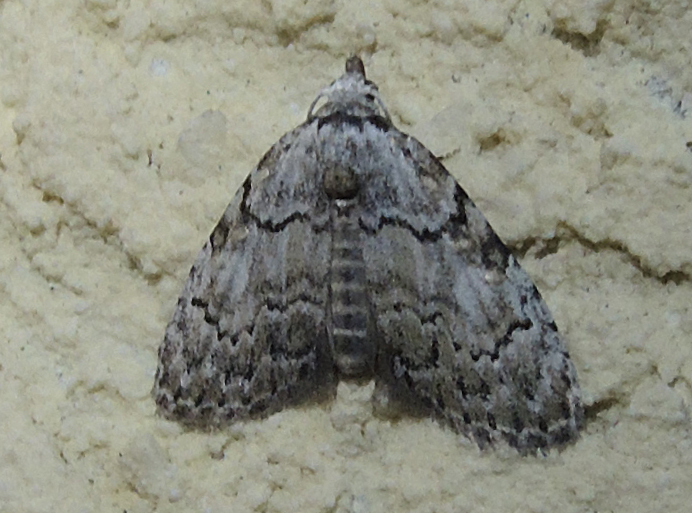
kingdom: Animalia
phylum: Arthropoda
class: Insecta
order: Lepidoptera
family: Nolidae
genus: Meganola
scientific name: Meganola strigula
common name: Small black arches
